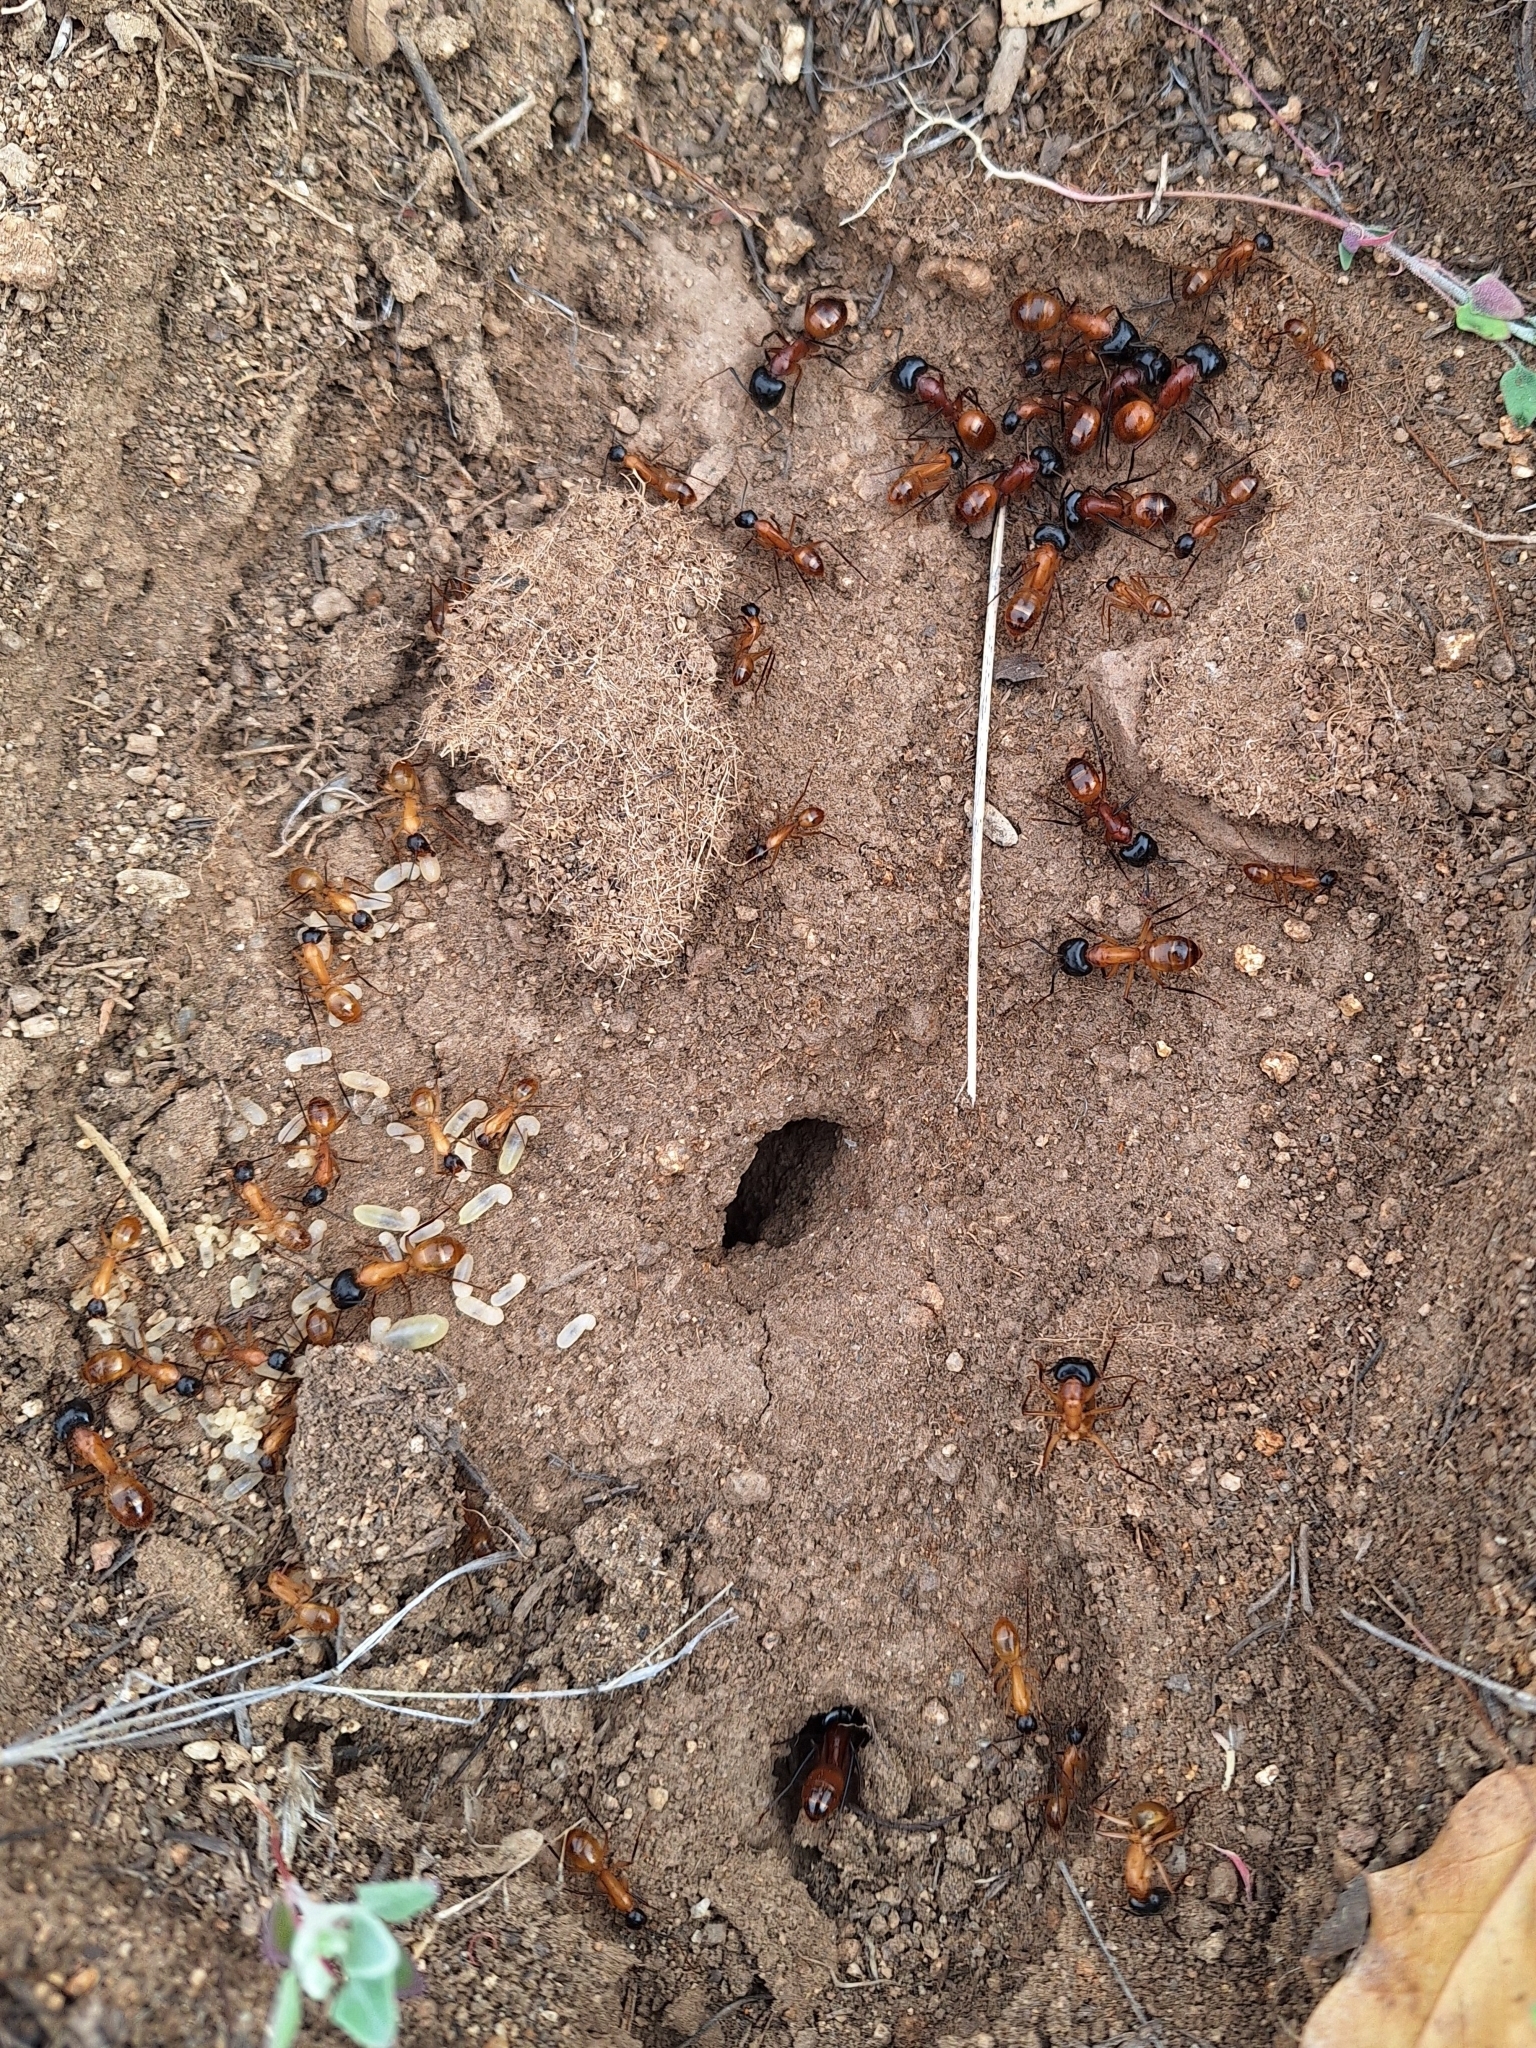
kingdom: Animalia
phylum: Arthropoda
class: Insecta
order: Hymenoptera
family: Formicidae
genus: Camponotus
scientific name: Camponotus ocreatus
